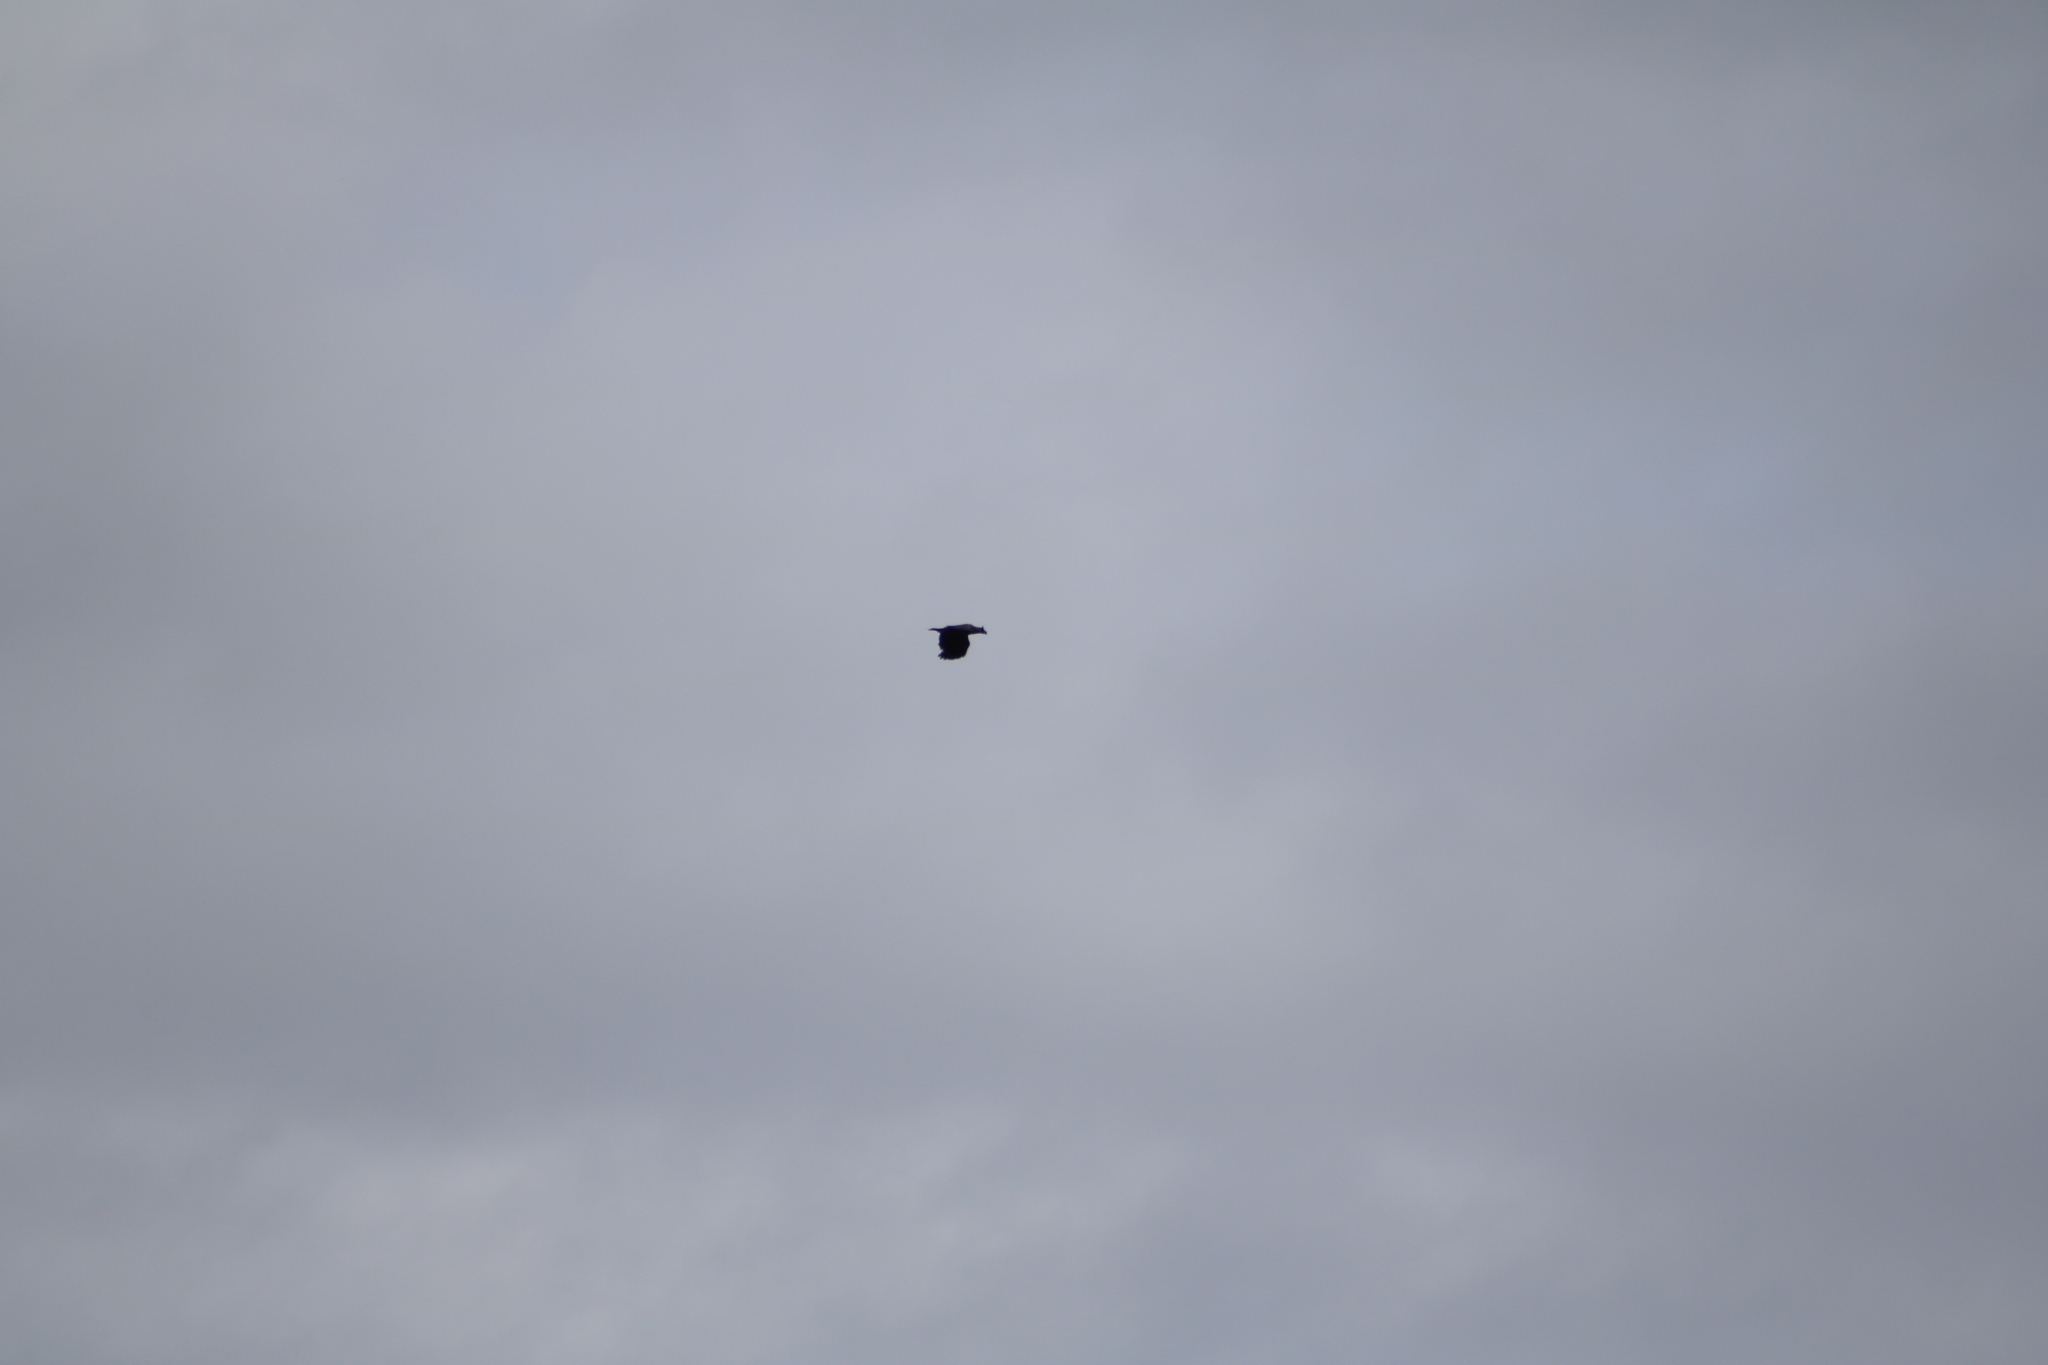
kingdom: Animalia
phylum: Chordata
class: Aves
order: Accipitriformes
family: Accipitridae
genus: Haliaeetus
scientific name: Haliaeetus albicilla
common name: White-tailed eagle
